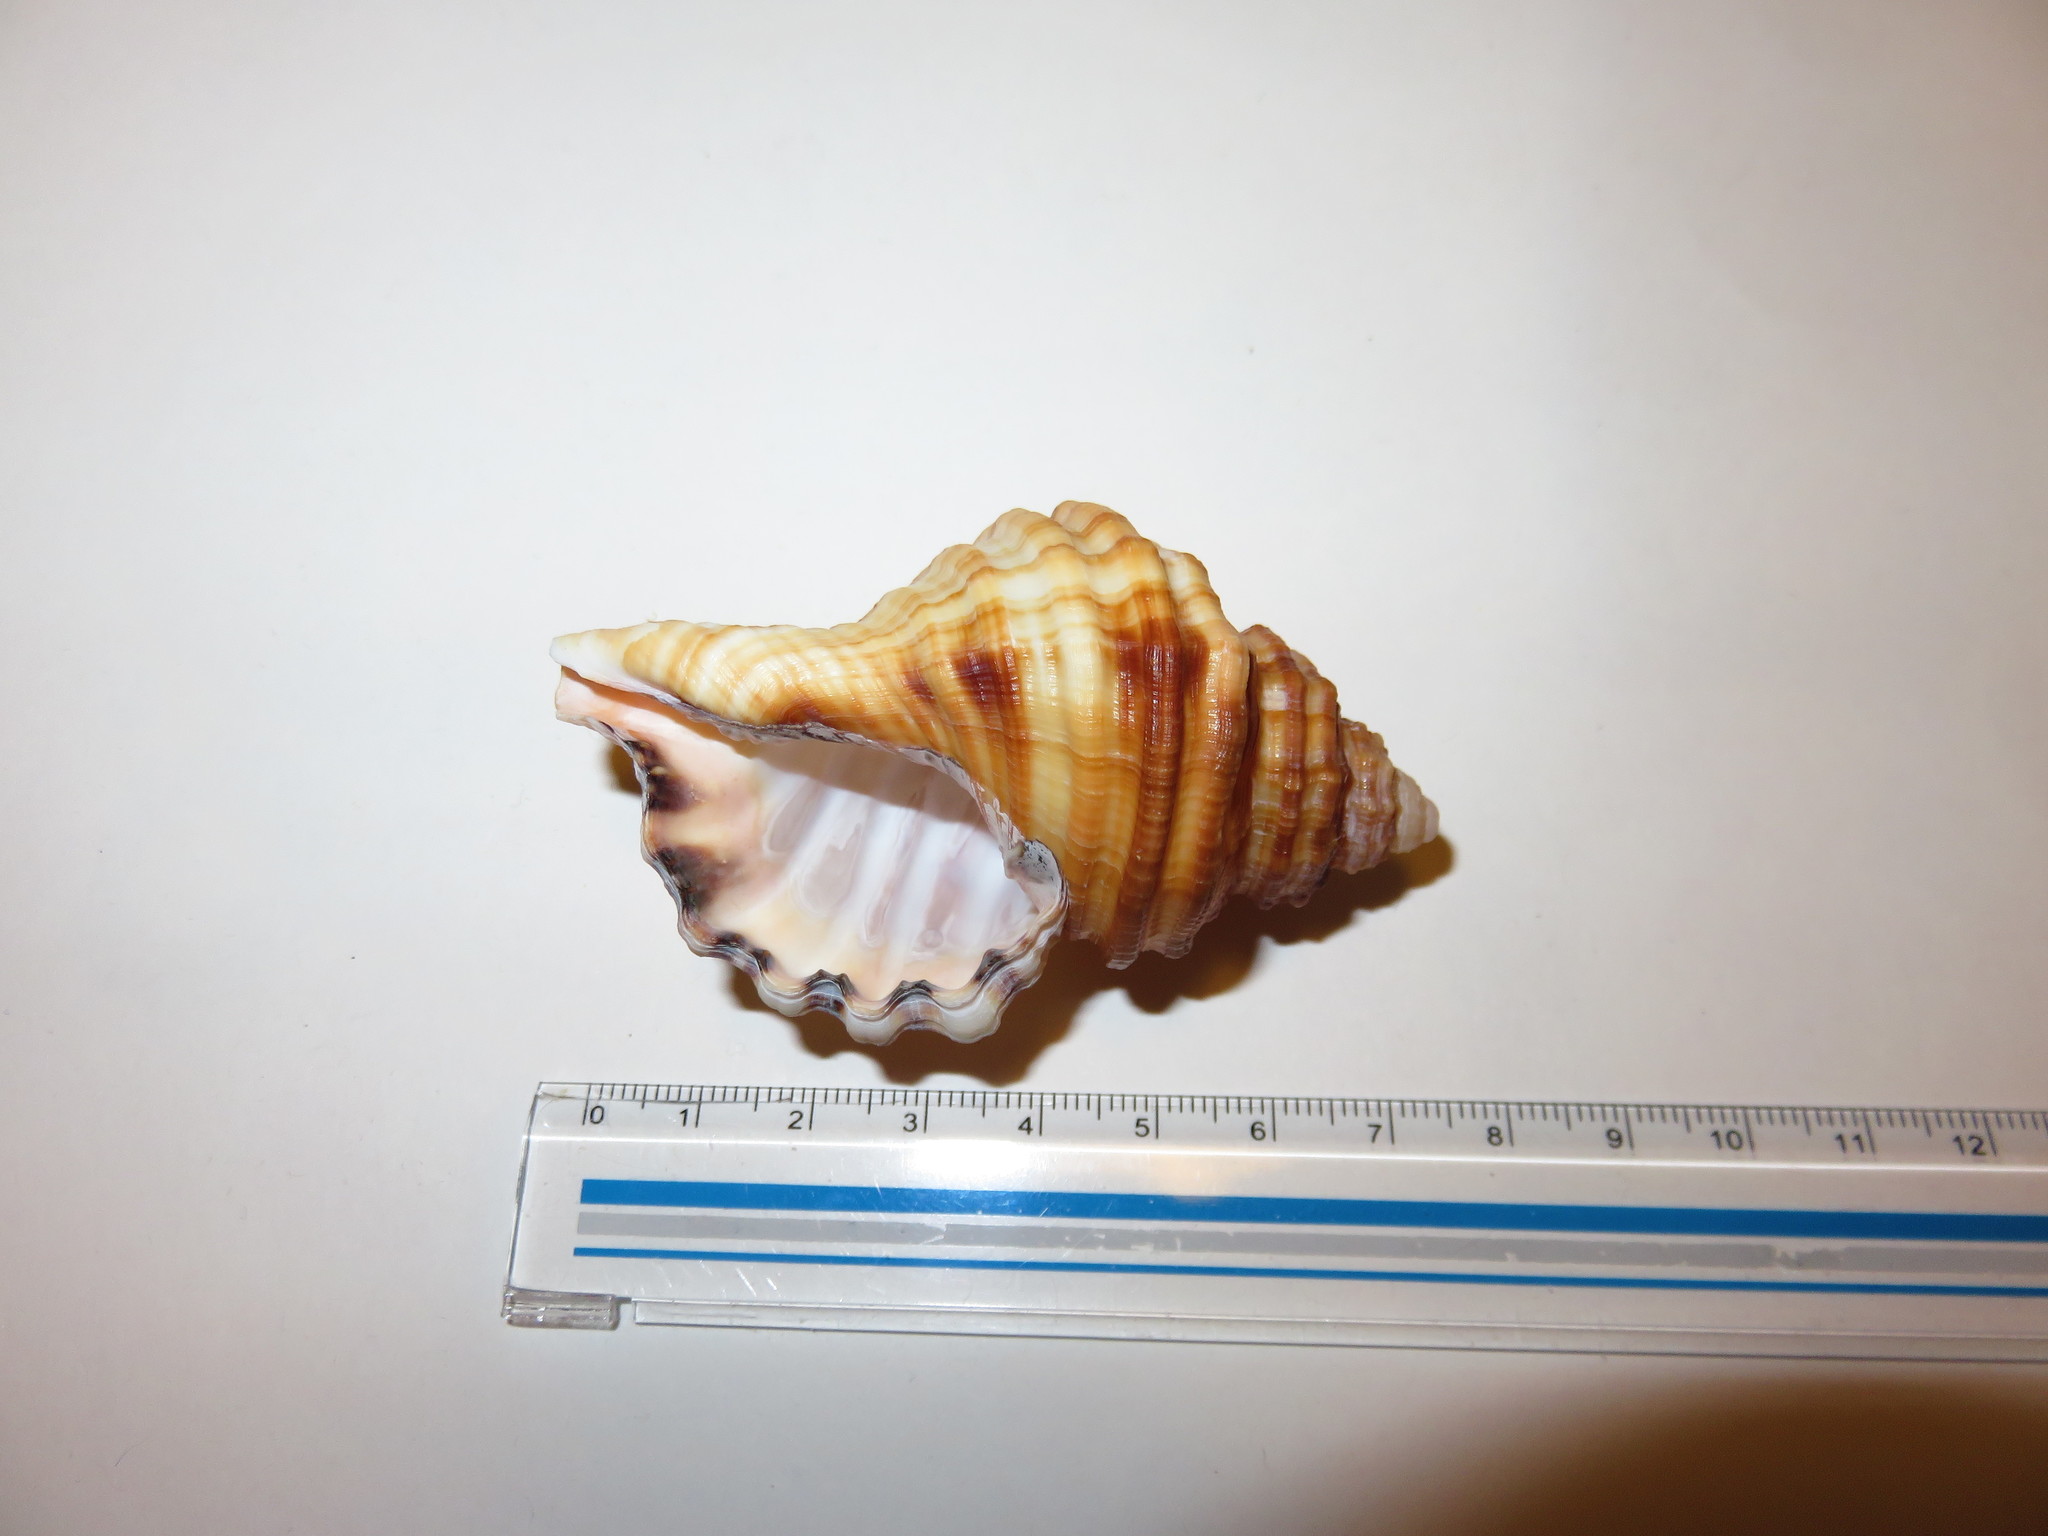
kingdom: Animalia
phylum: Mollusca
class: Gastropoda
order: Littorinimorpha
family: Cymatiidae
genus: Monoplex
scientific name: Monoplex parthenopeus
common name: Giant triton
